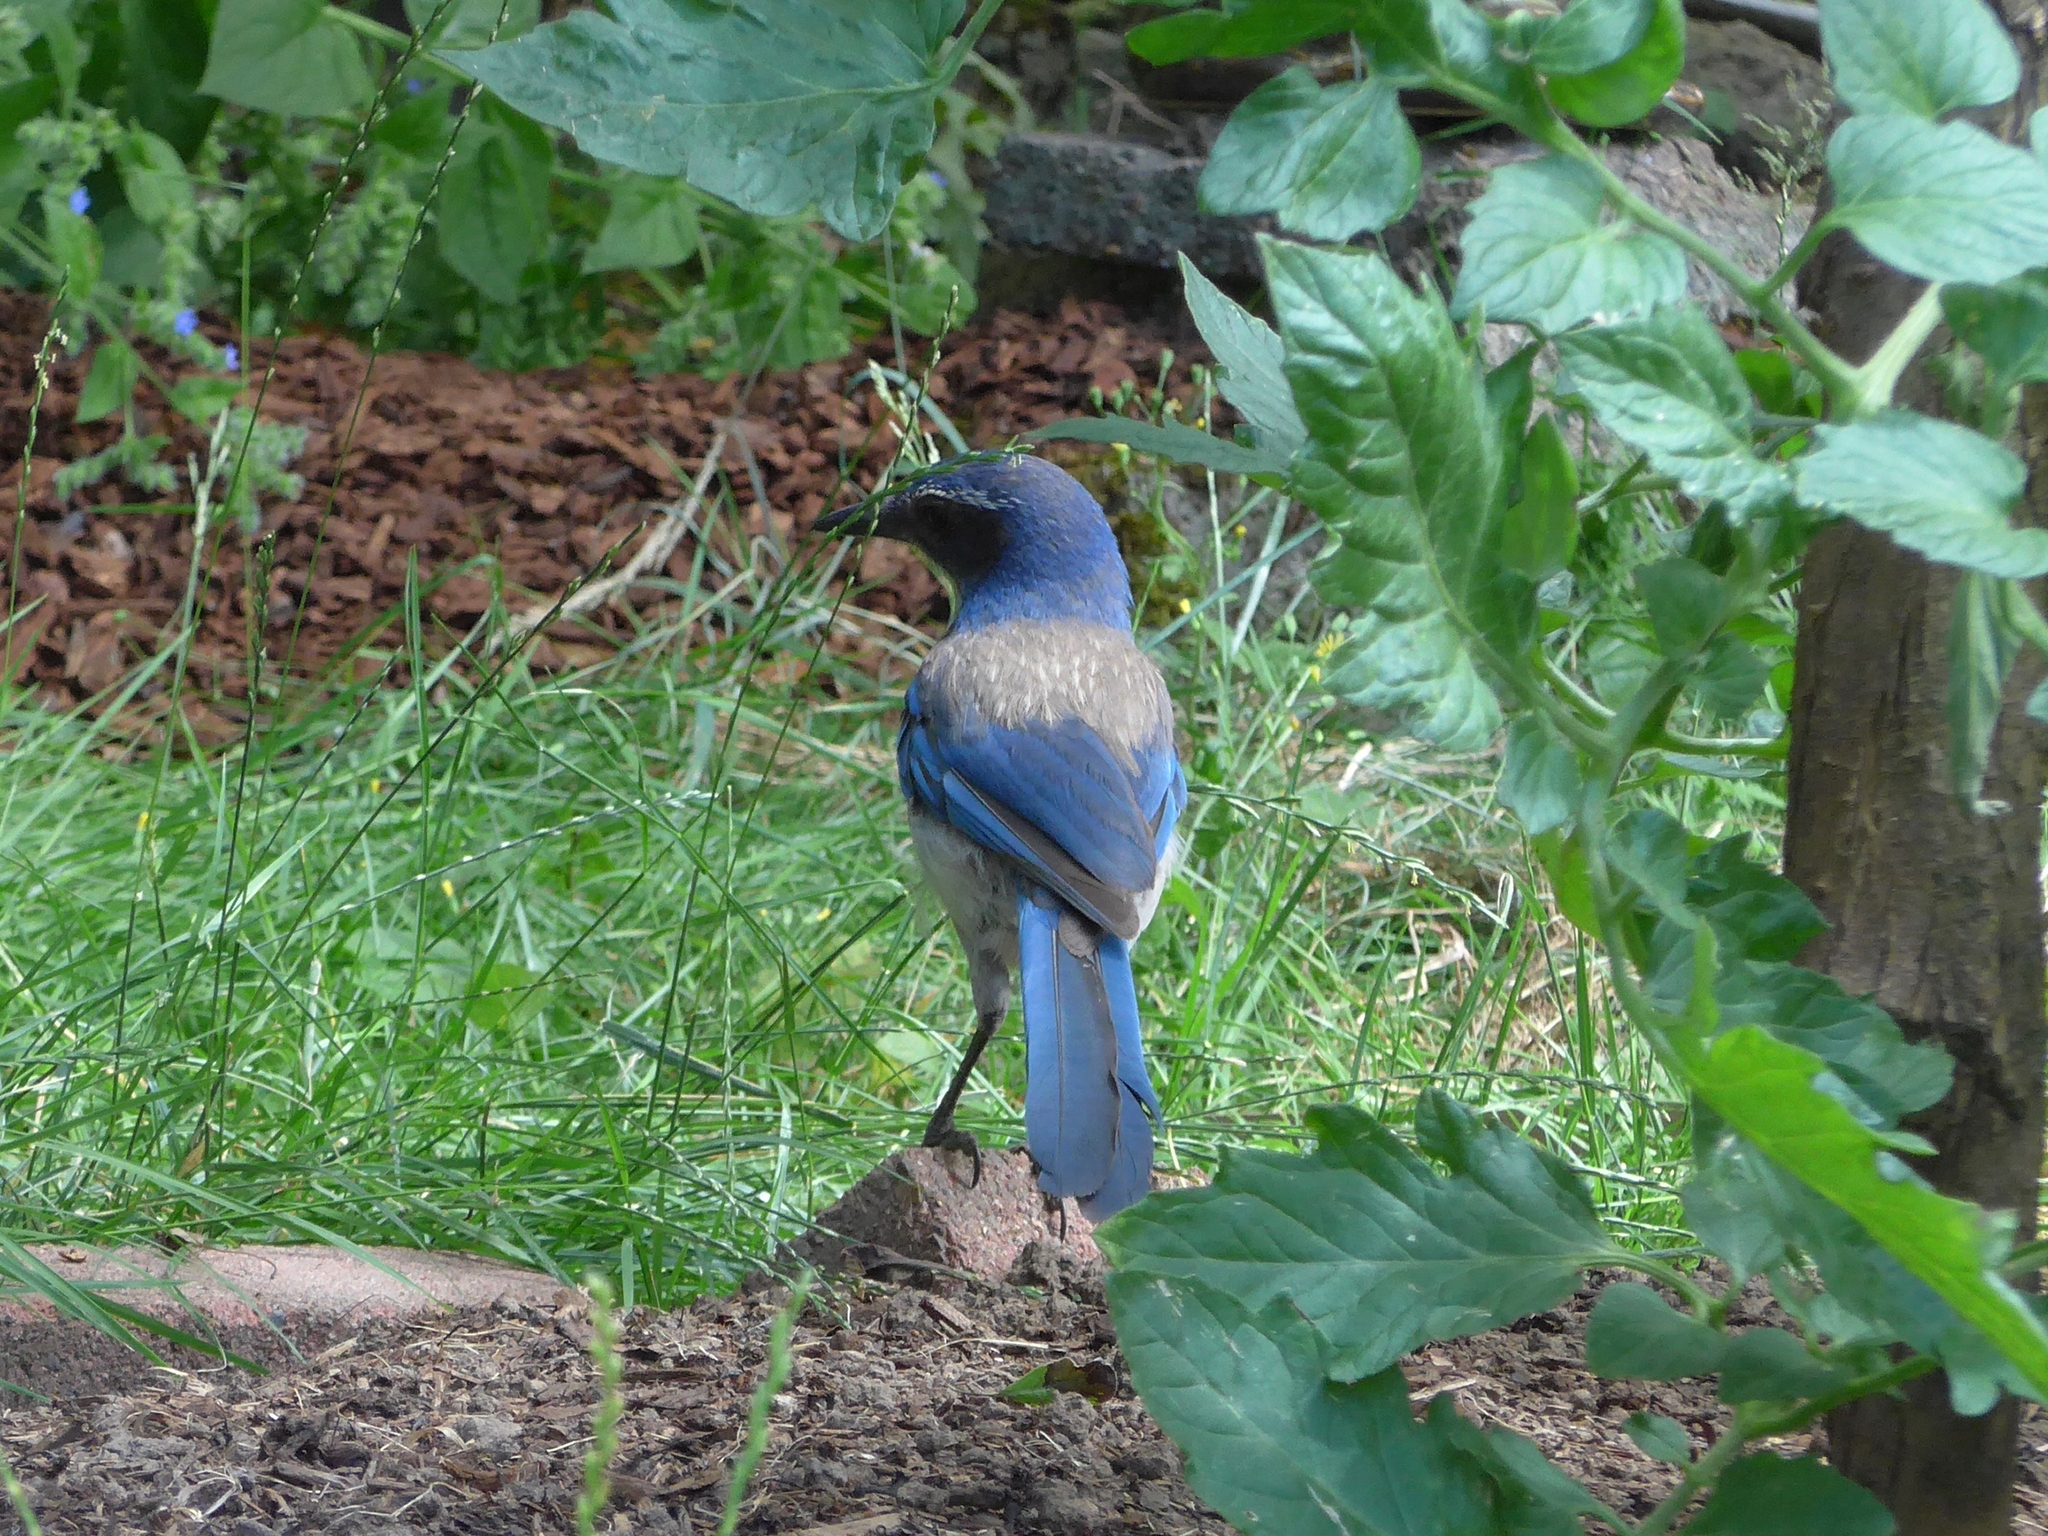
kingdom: Animalia
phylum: Chordata
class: Aves
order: Passeriformes
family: Corvidae
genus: Aphelocoma
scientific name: Aphelocoma californica
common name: California scrub-jay
